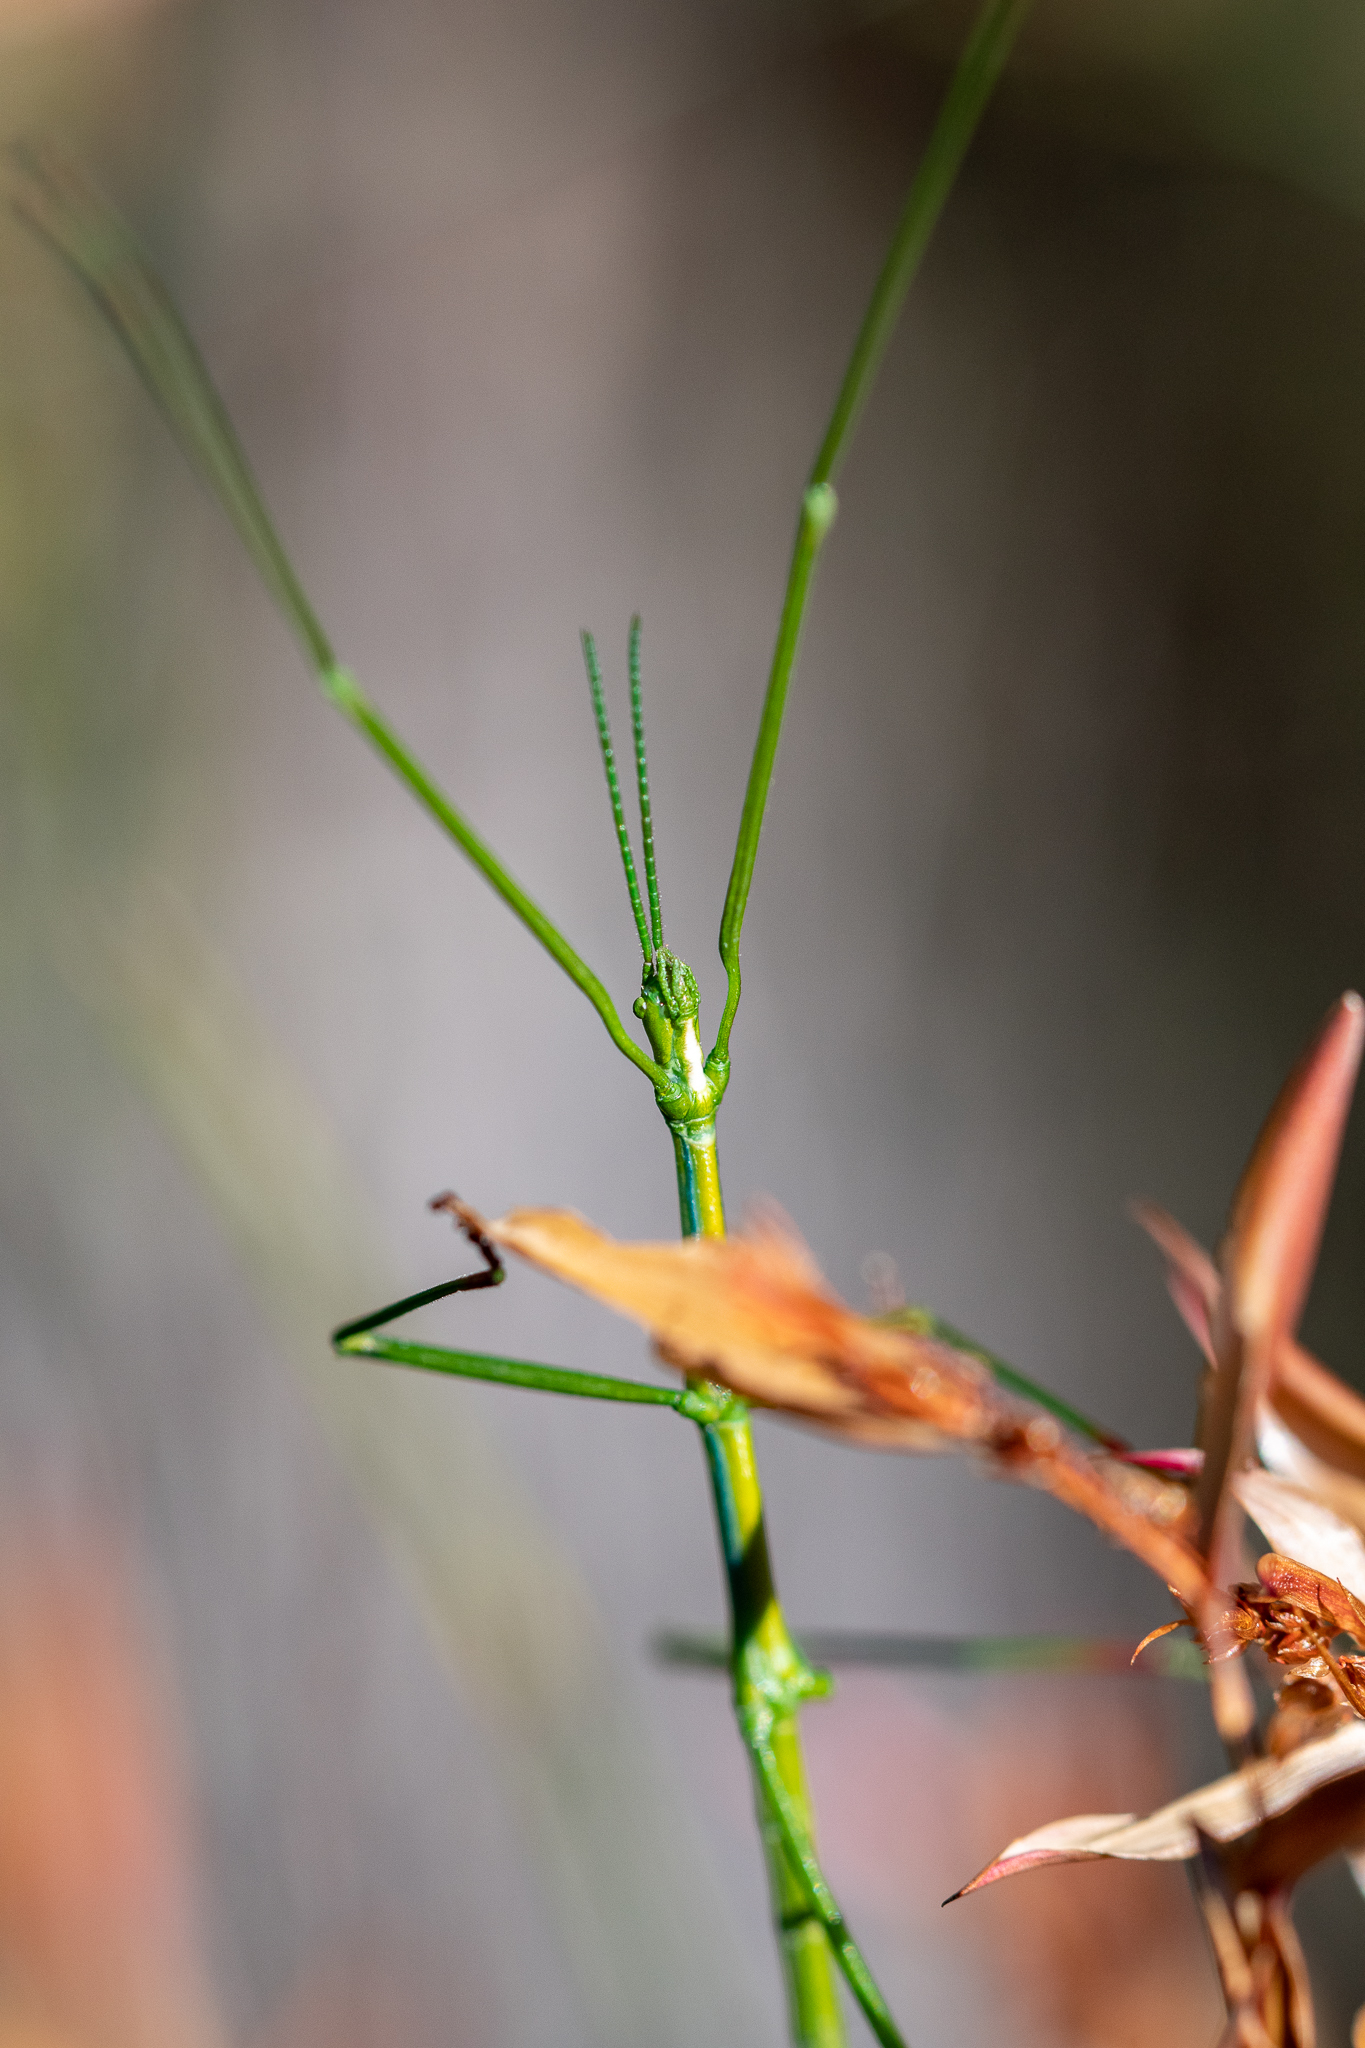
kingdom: Animalia
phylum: Arthropoda
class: Insecta
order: Phasmida
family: Bacillidae
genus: Phalces
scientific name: Phalces brevis
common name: Cape stick insect
